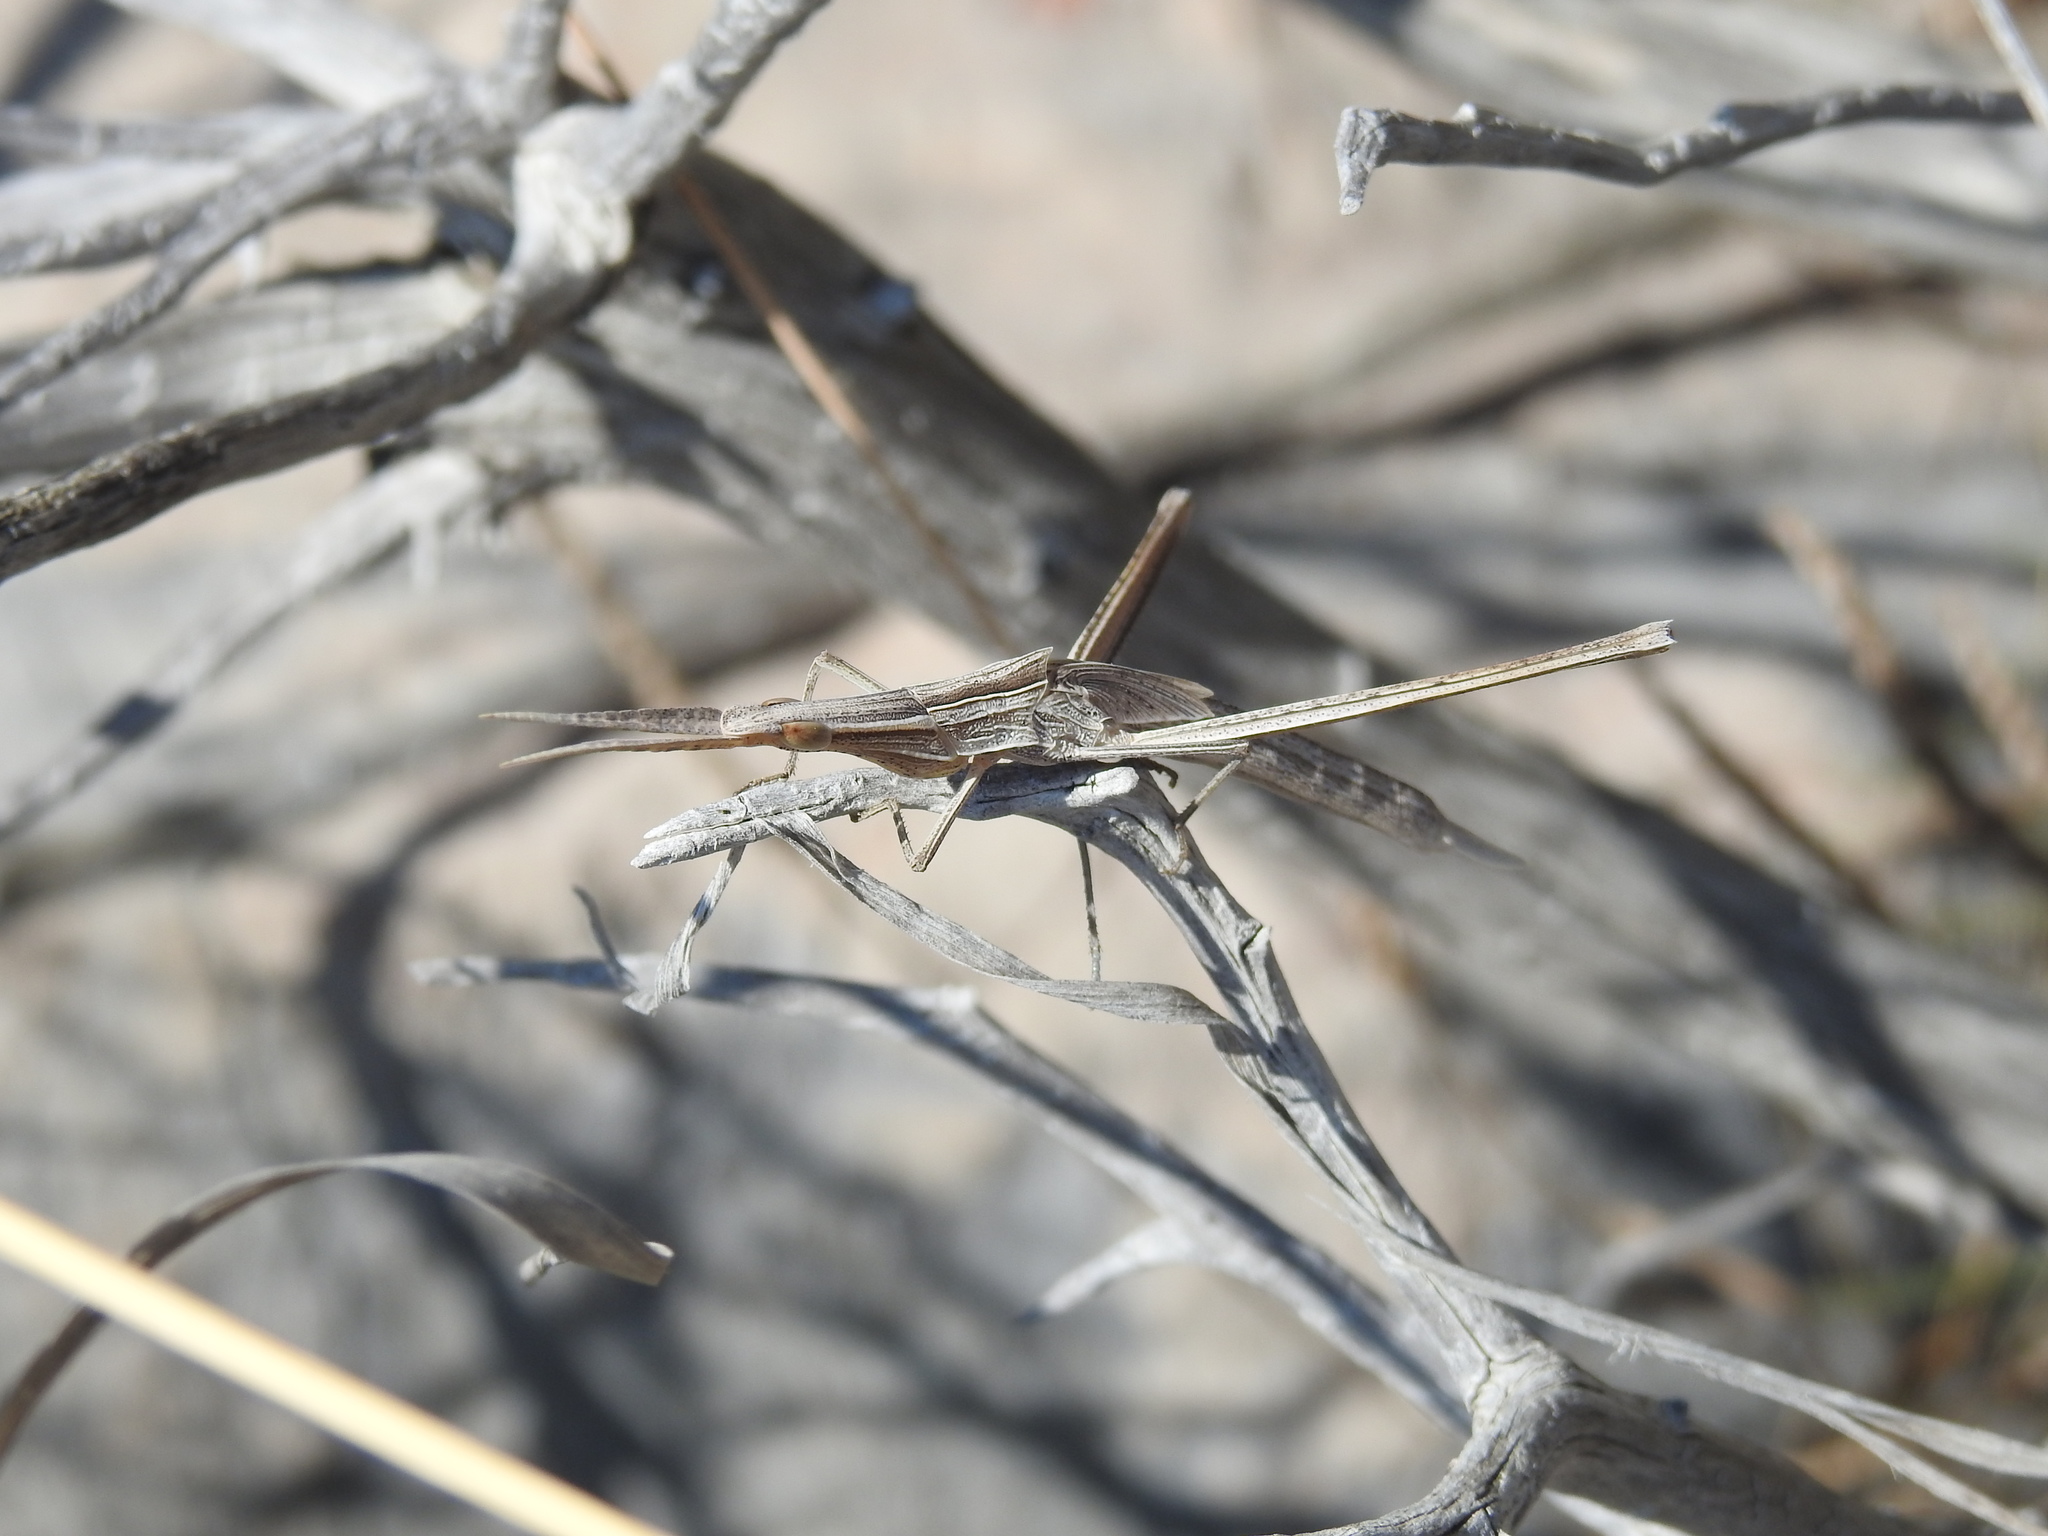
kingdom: Animalia
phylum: Arthropoda
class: Insecta
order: Orthoptera
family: Acrididae
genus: Acrida
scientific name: Acrida ungarica
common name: Common cone-headed grasshopper
